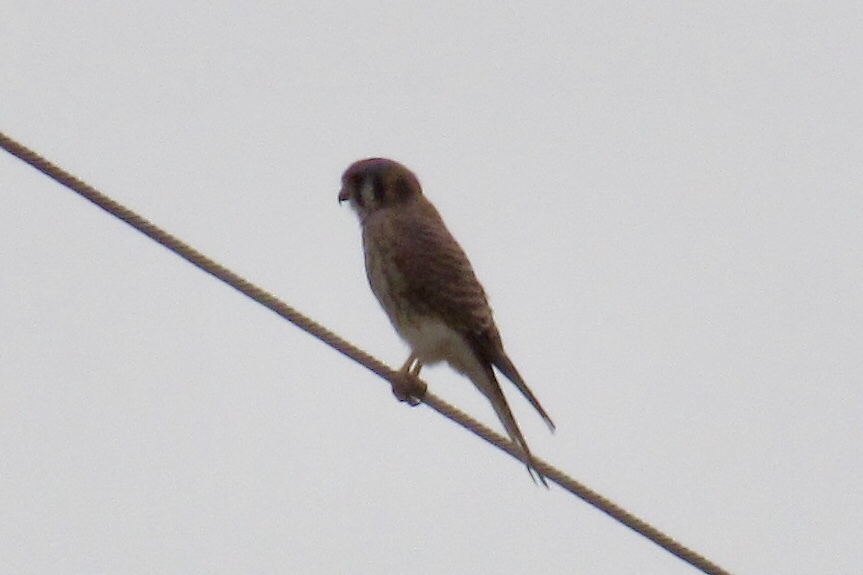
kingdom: Animalia
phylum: Chordata
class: Aves
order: Falconiformes
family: Falconidae
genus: Falco
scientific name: Falco sparverius
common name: American kestrel
